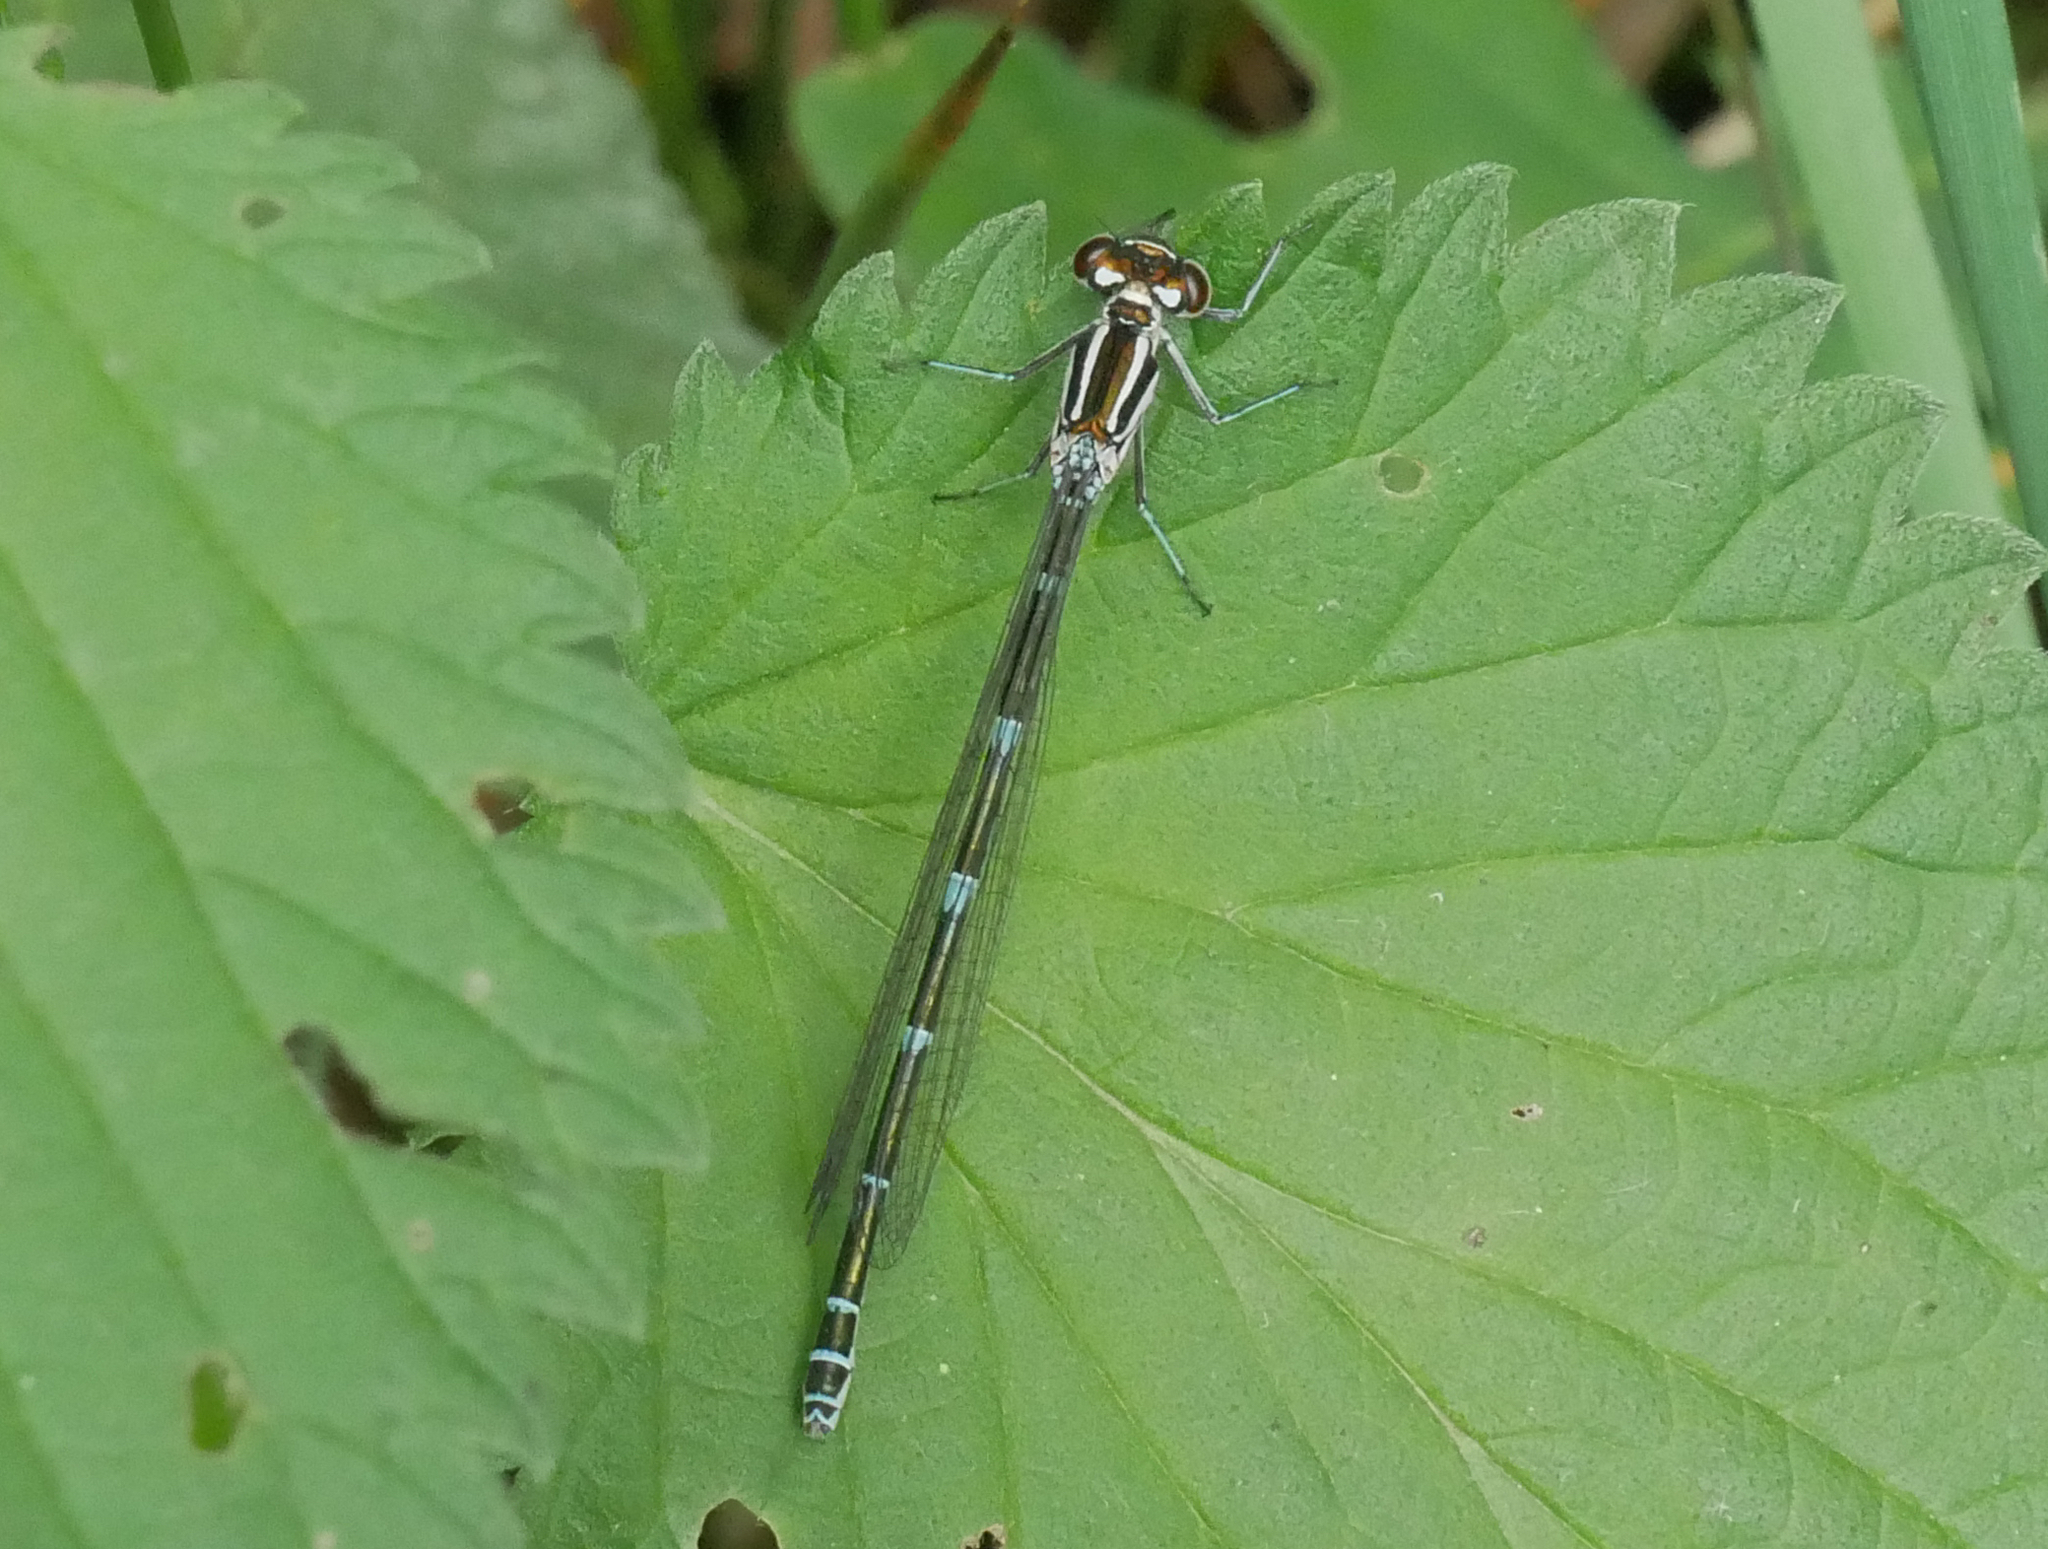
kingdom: Animalia
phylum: Arthropoda
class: Insecta
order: Odonata
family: Coenagrionidae
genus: Coenagrion
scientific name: Coenagrion puella
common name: Azure damselfly
